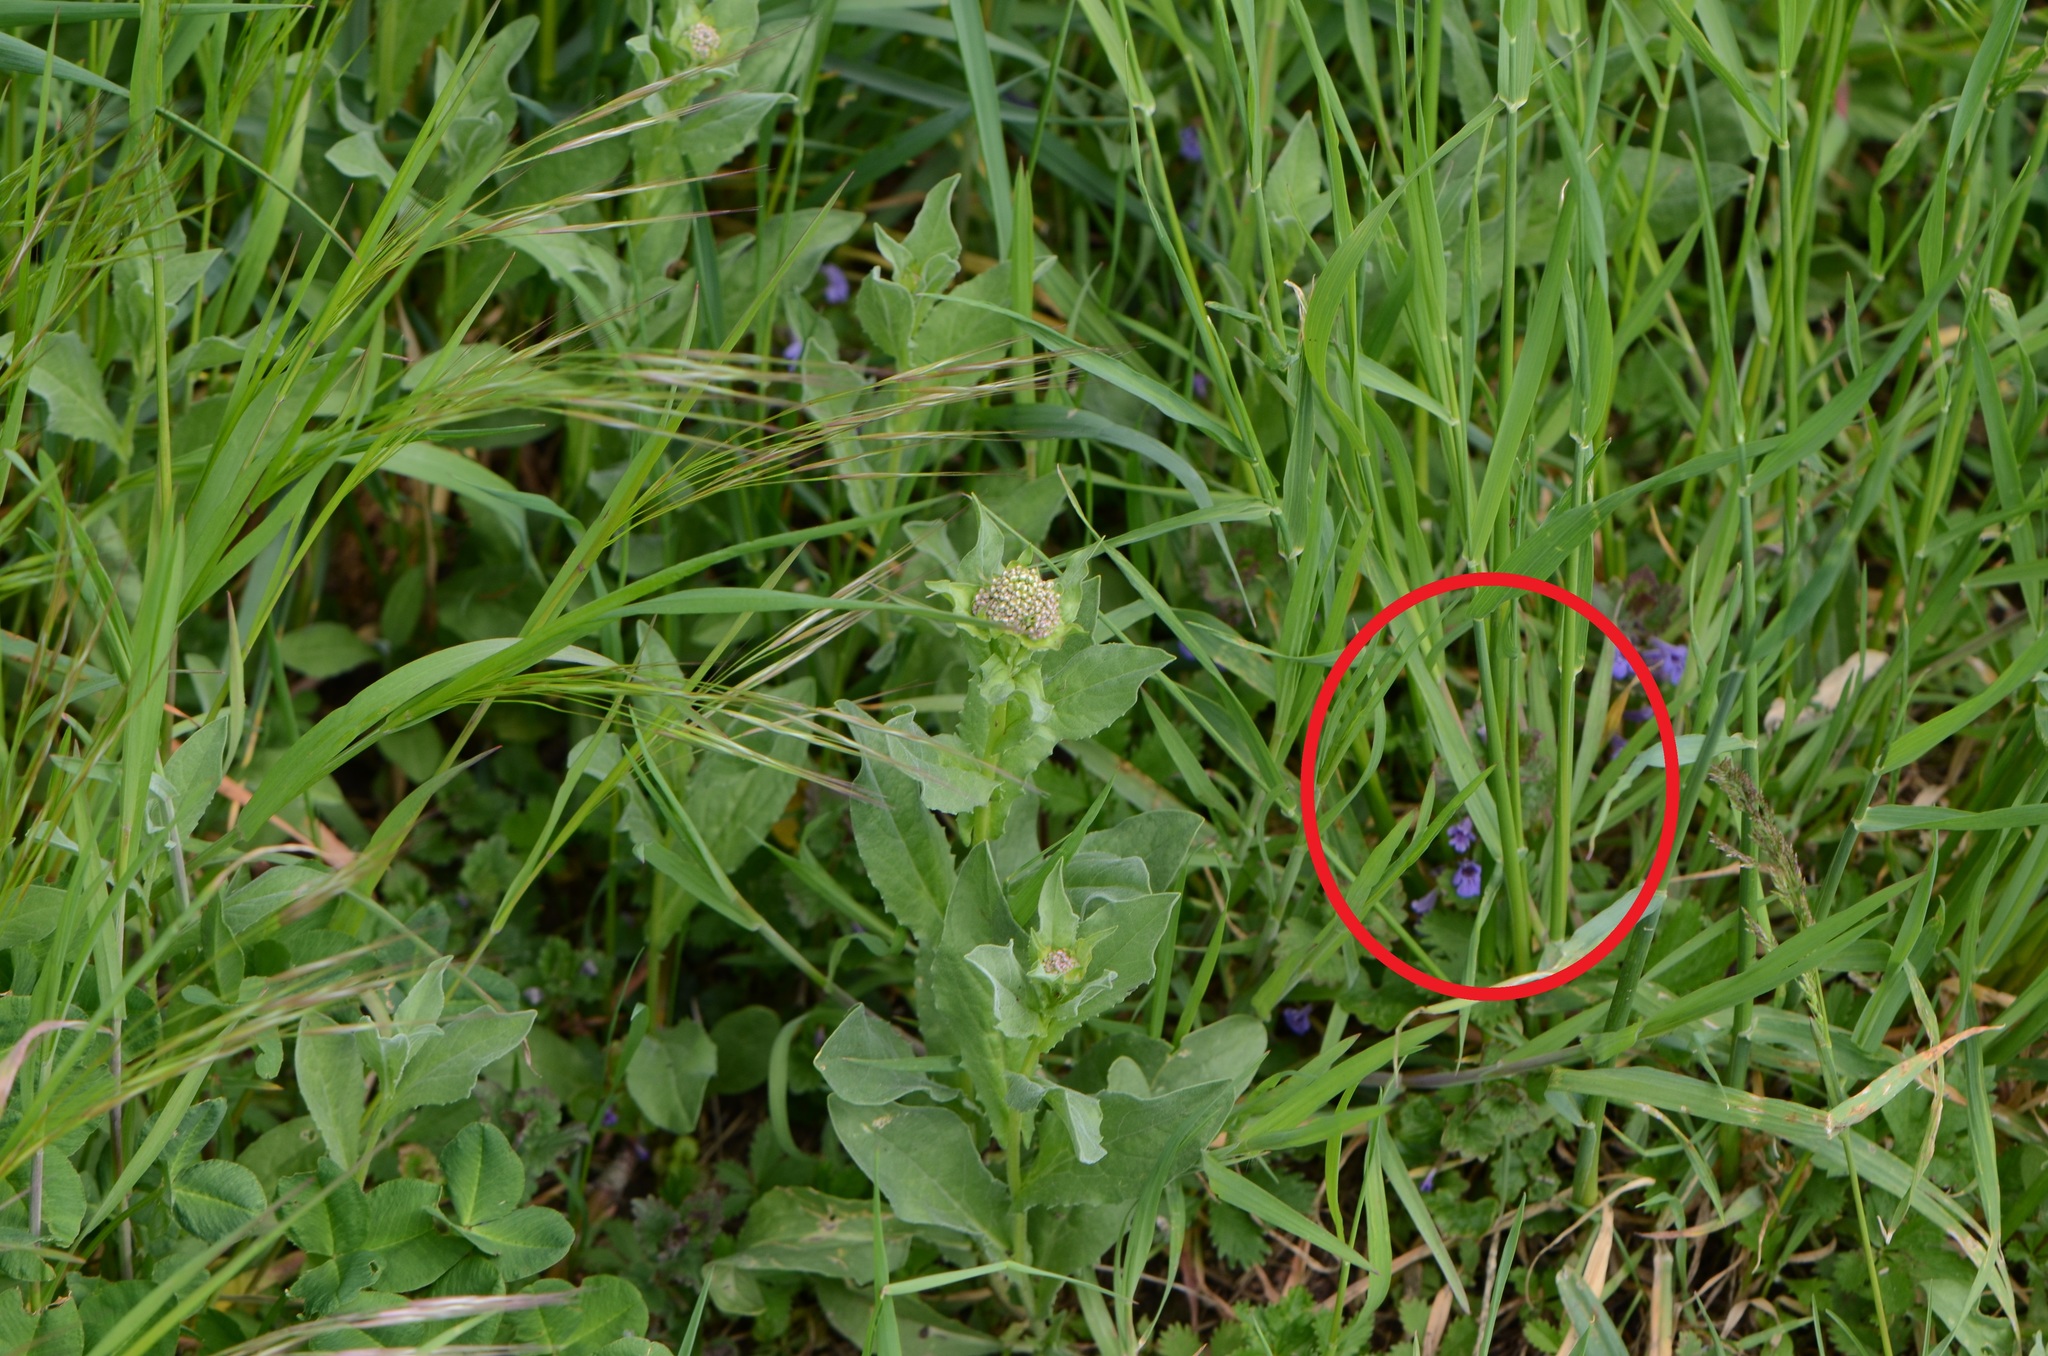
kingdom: Plantae
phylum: Tracheophyta
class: Magnoliopsida
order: Lamiales
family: Lamiaceae
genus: Glechoma
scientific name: Glechoma hederacea
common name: Ground ivy
